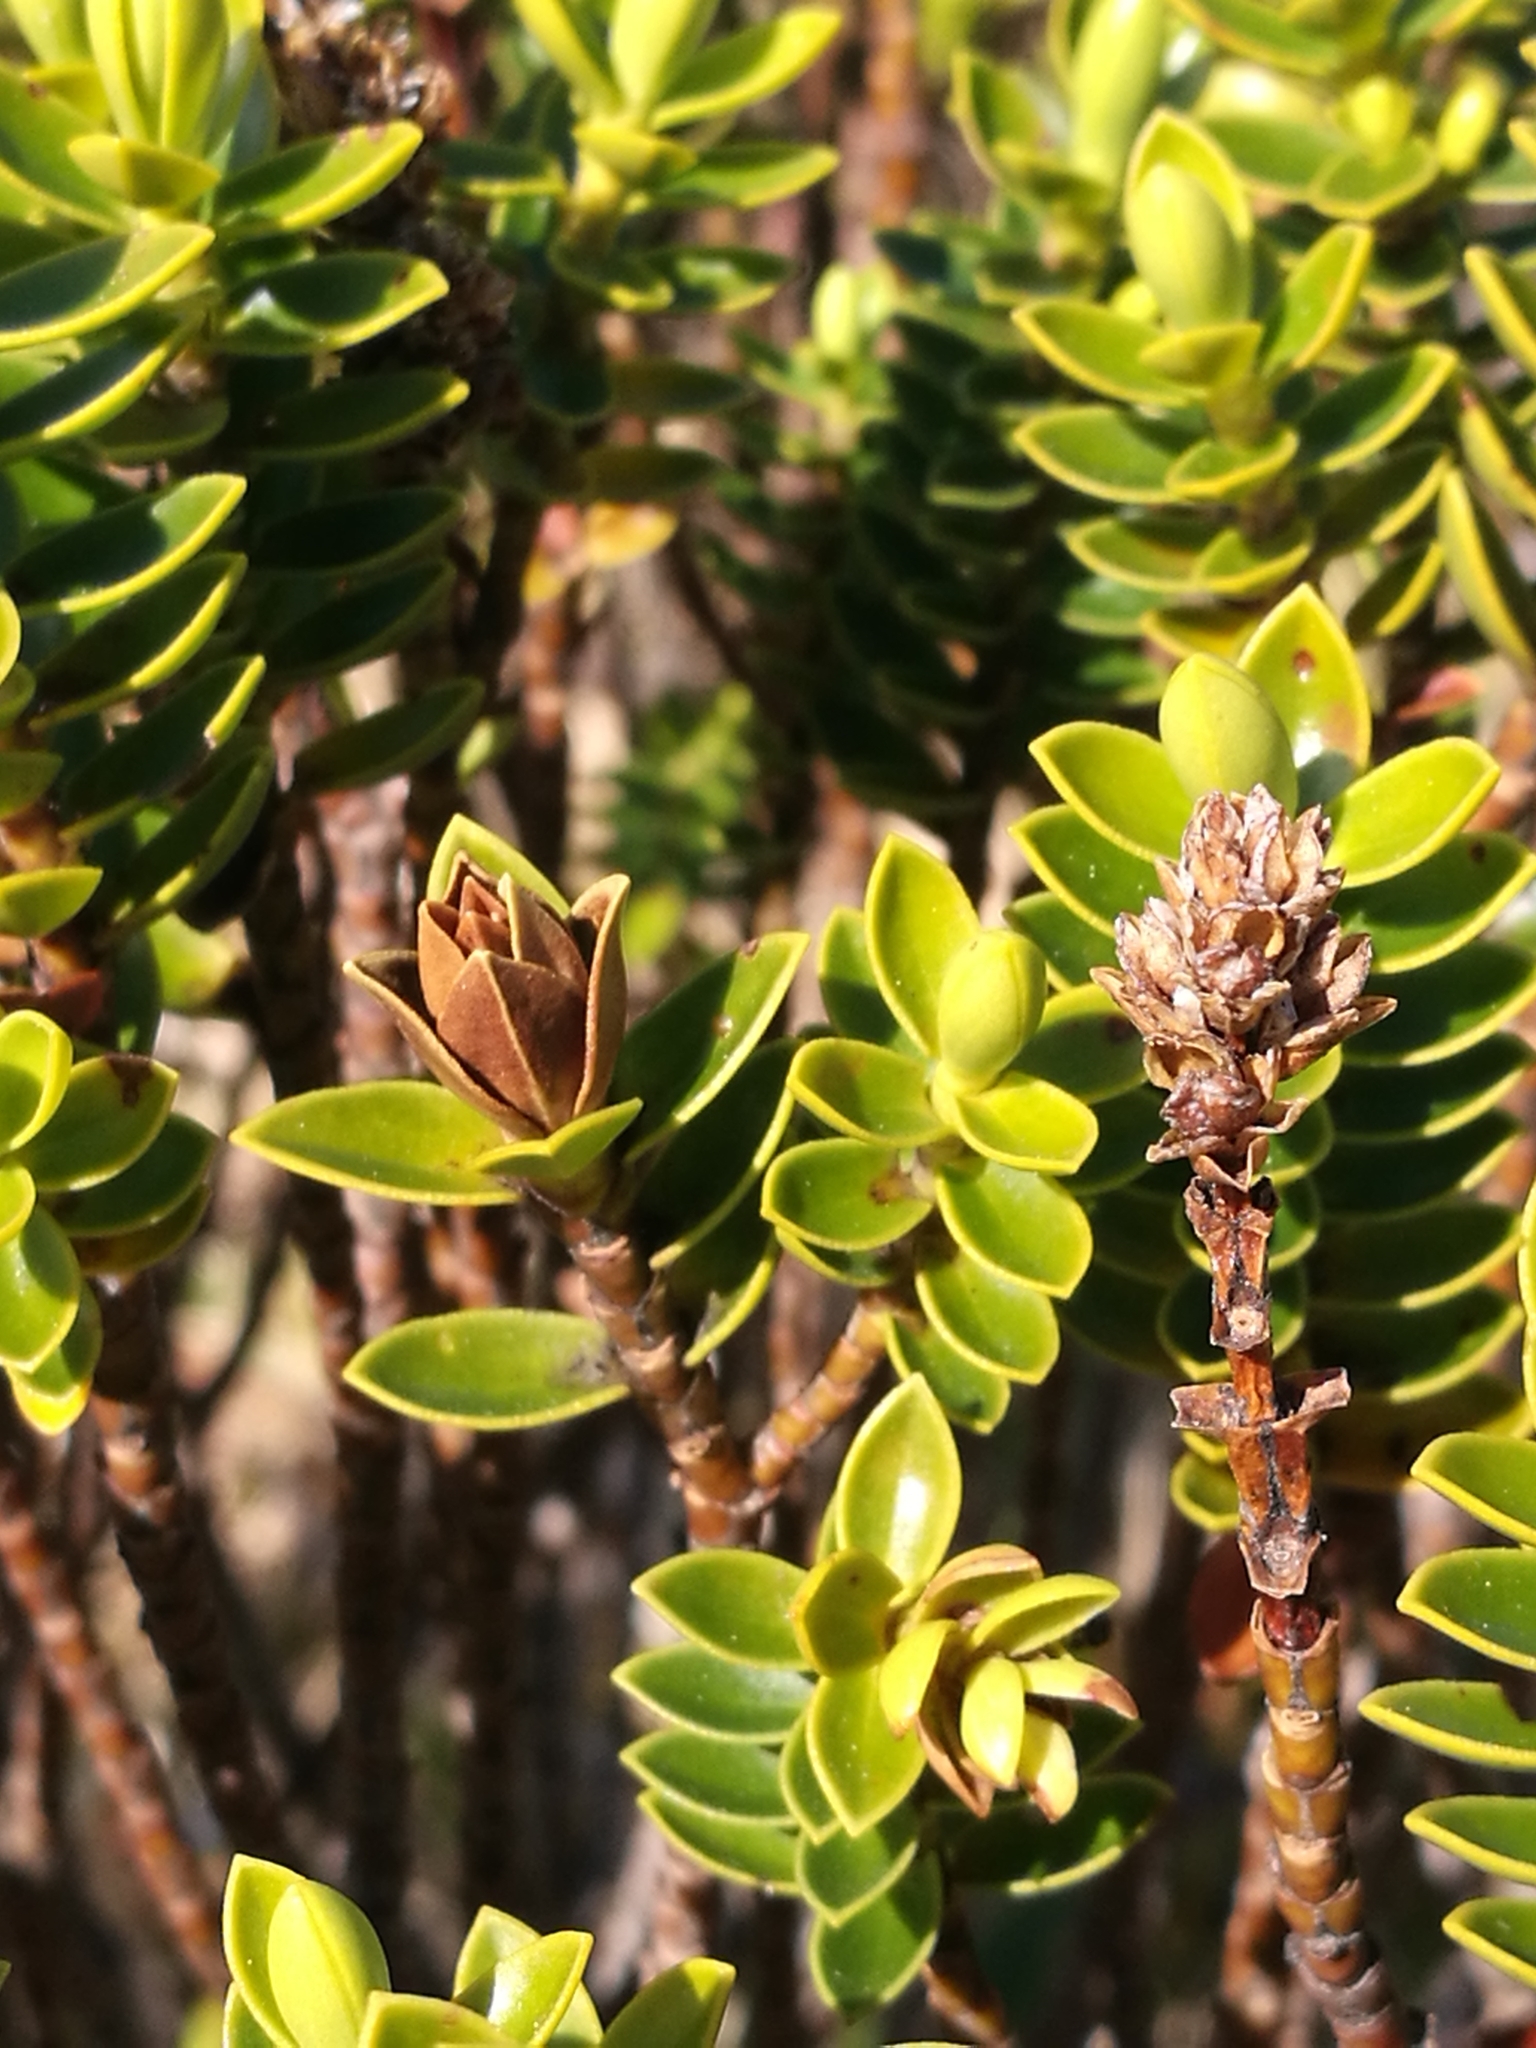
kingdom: Plantae
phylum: Tracheophyta
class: Magnoliopsida
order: Lamiales
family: Plantaginaceae
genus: Veronica
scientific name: Veronica odora
